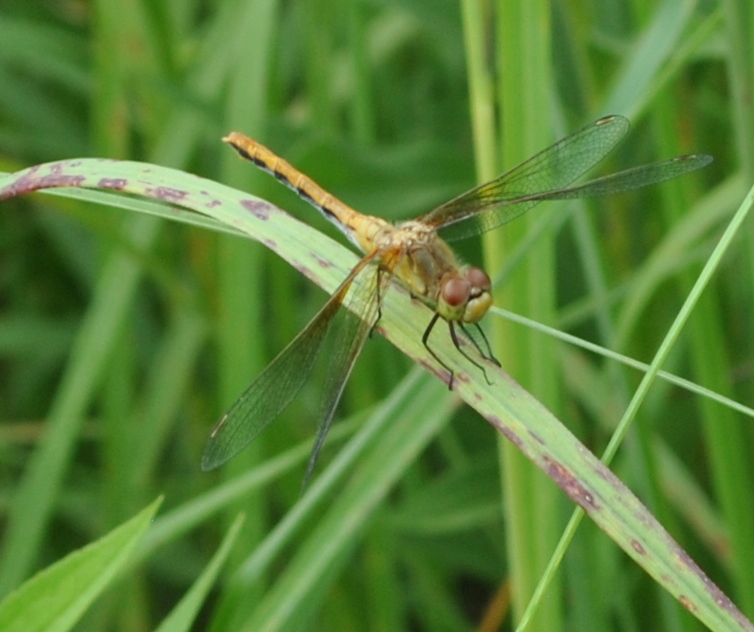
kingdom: Animalia
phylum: Arthropoda
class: Insecta
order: Odonata
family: Libellulidae
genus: Sympetrum
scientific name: Sympetrum
